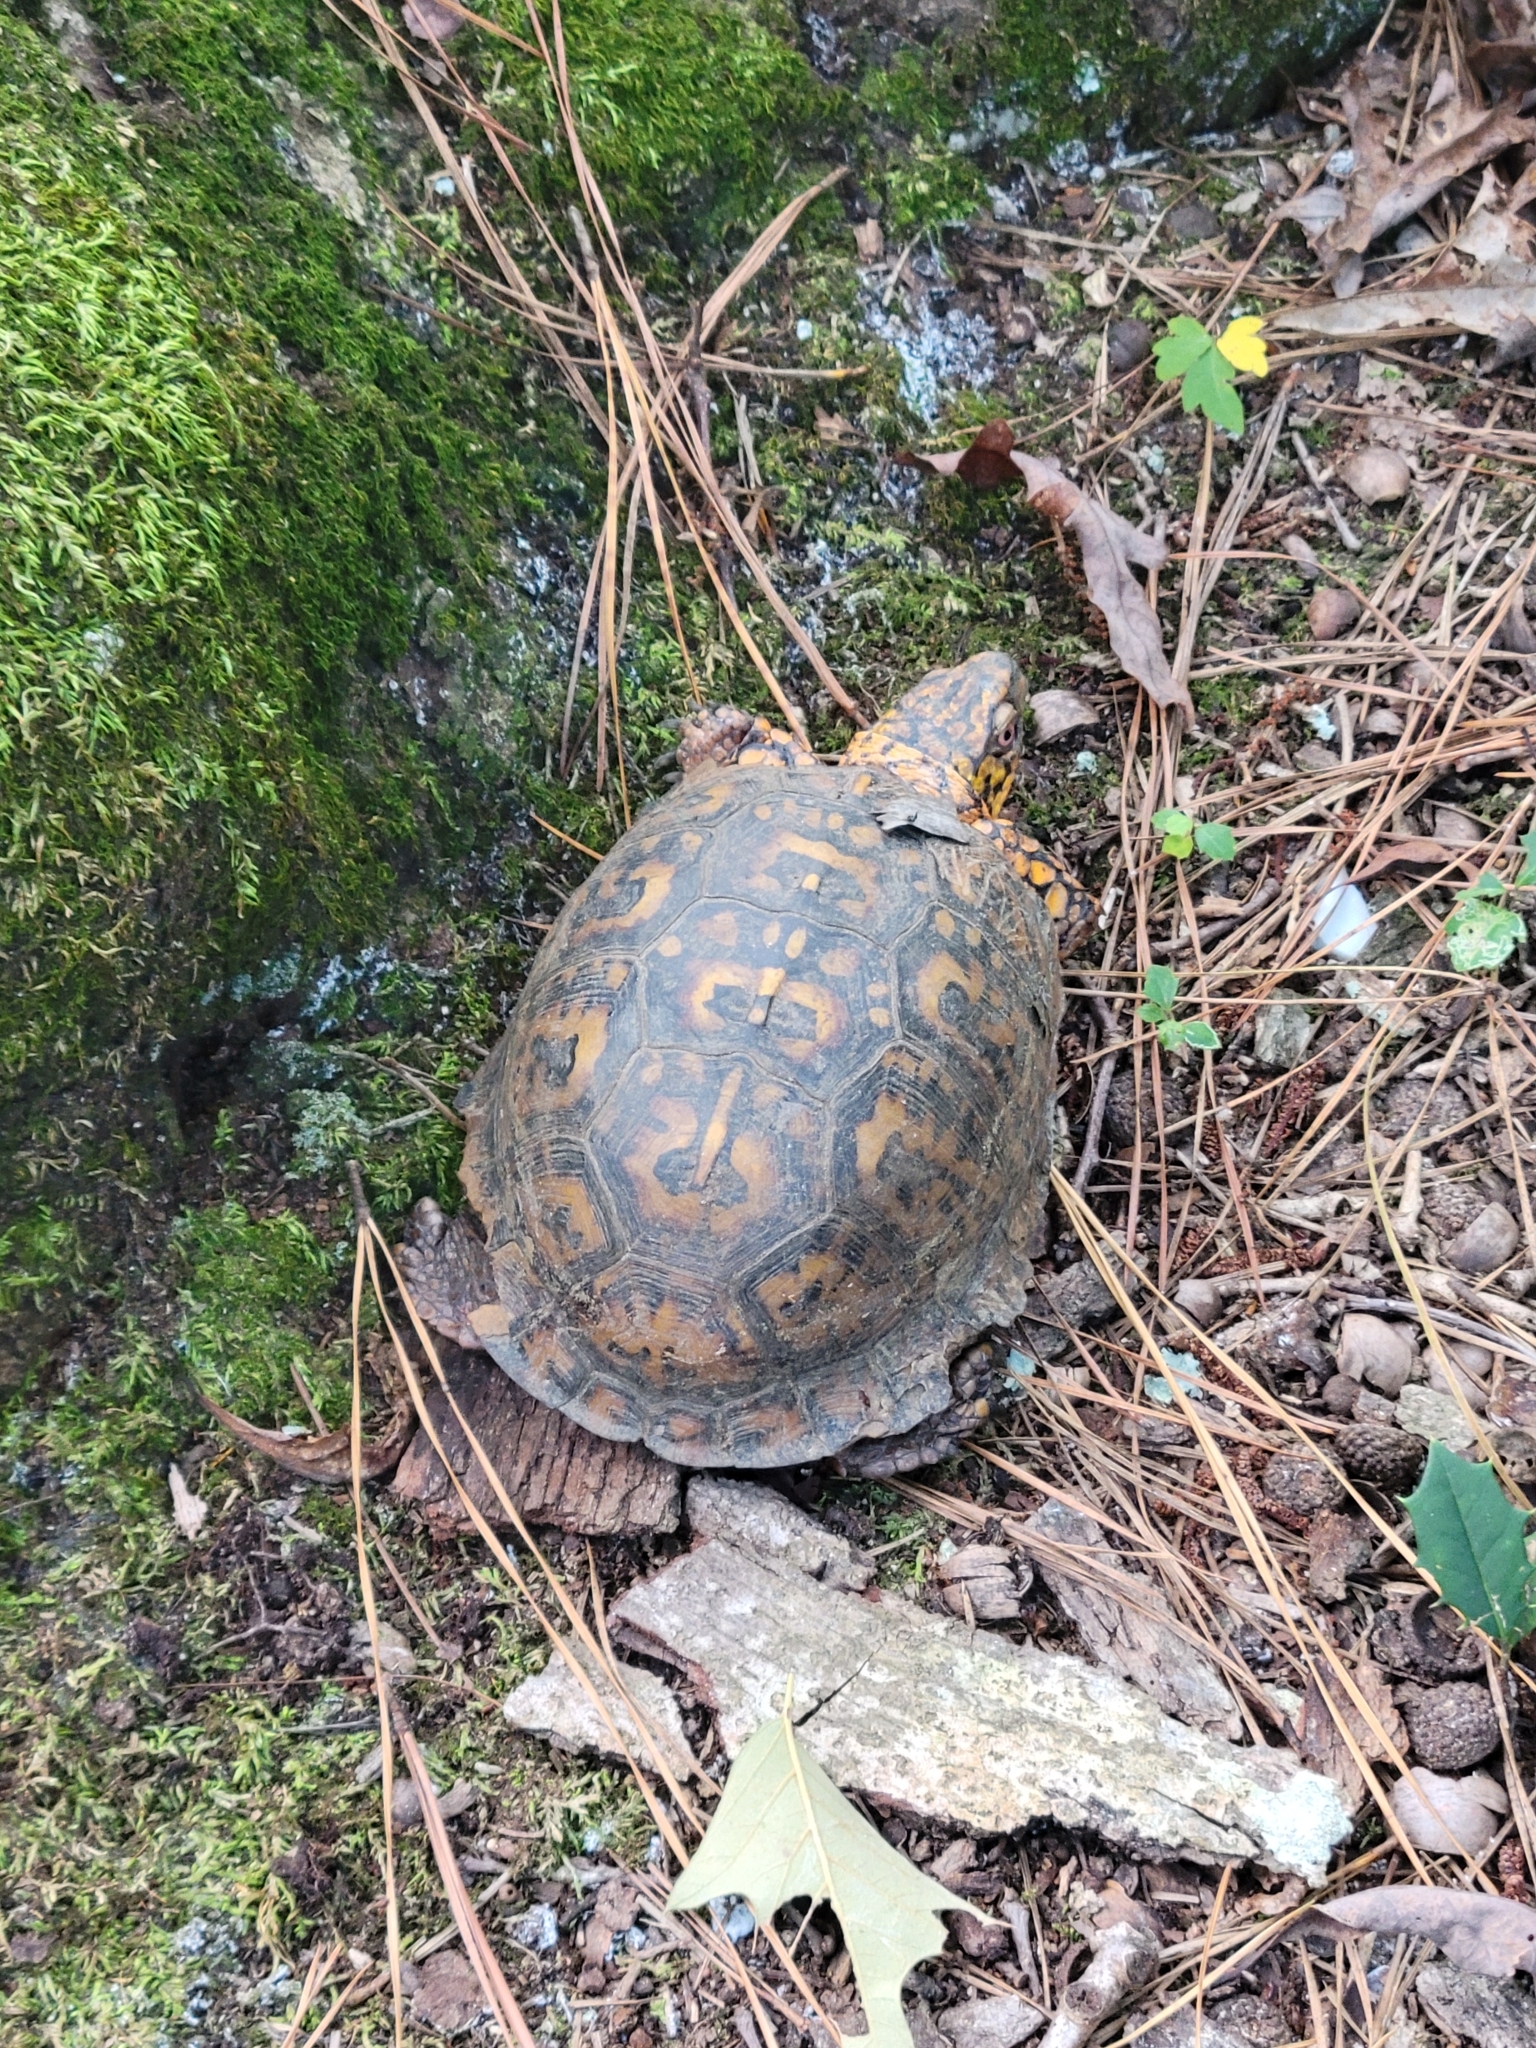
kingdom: Animalia
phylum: Chordata
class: Testudines
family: Emydidae
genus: Terrapene
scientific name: Terrapene carolina
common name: Common box turtle
